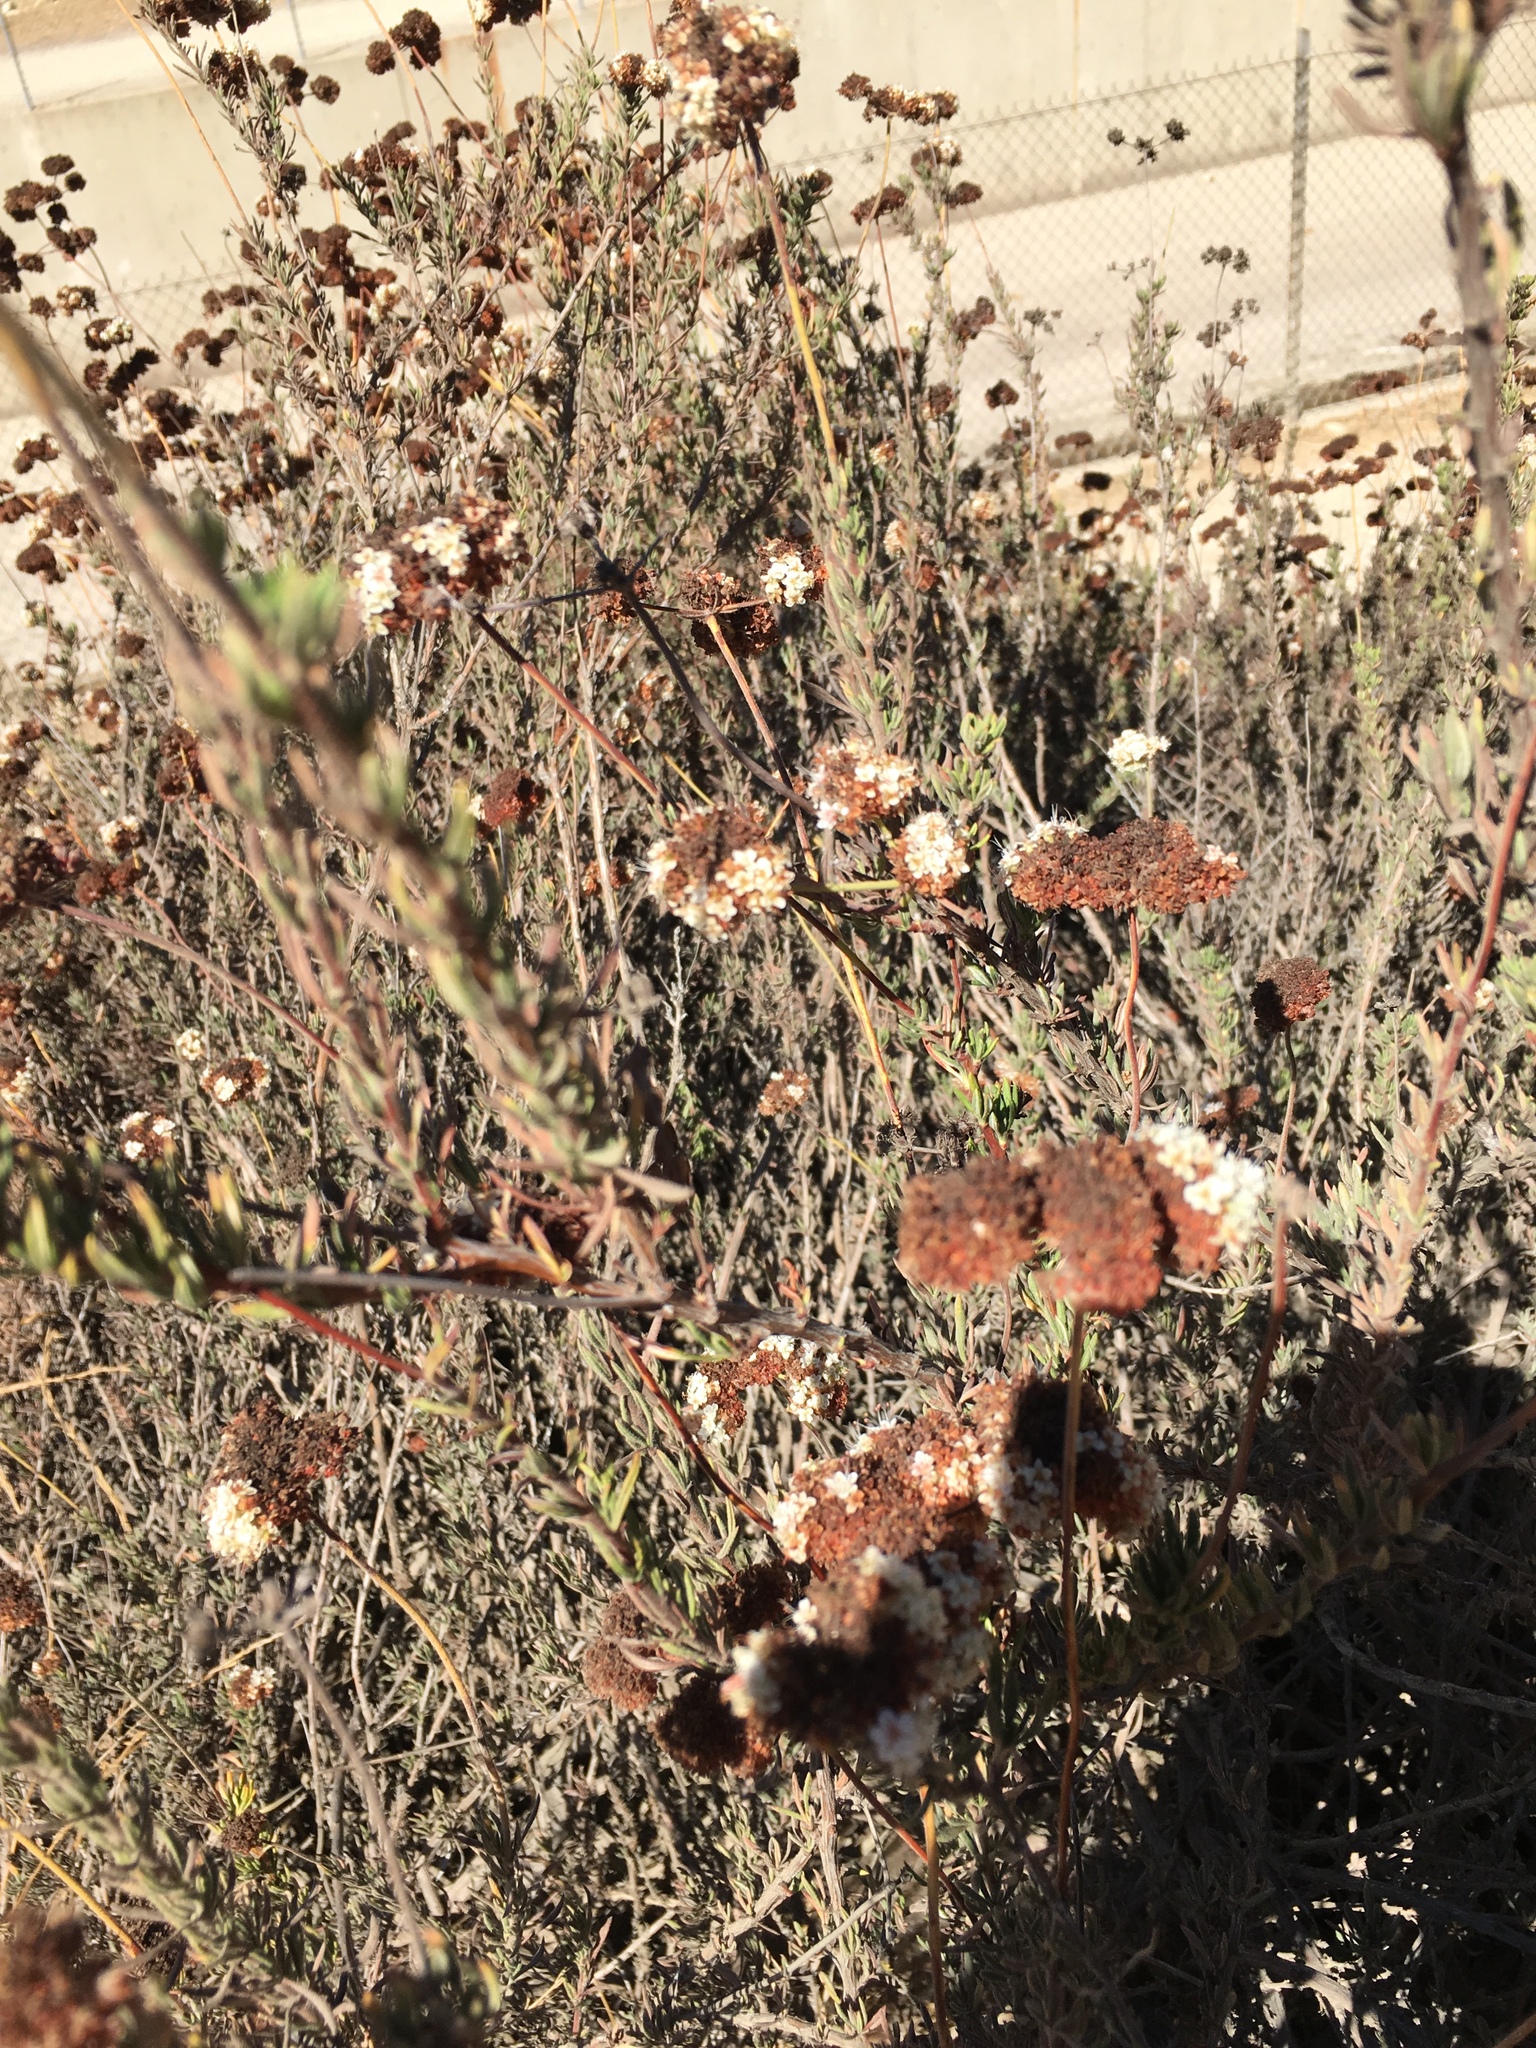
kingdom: Plantae
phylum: Tracheophyta
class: Magnoliopsida
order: Caryophyllales
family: Polygonaceae
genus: Eriogonum
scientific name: Eriogonum fasciculatum
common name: California wild buckwheat
